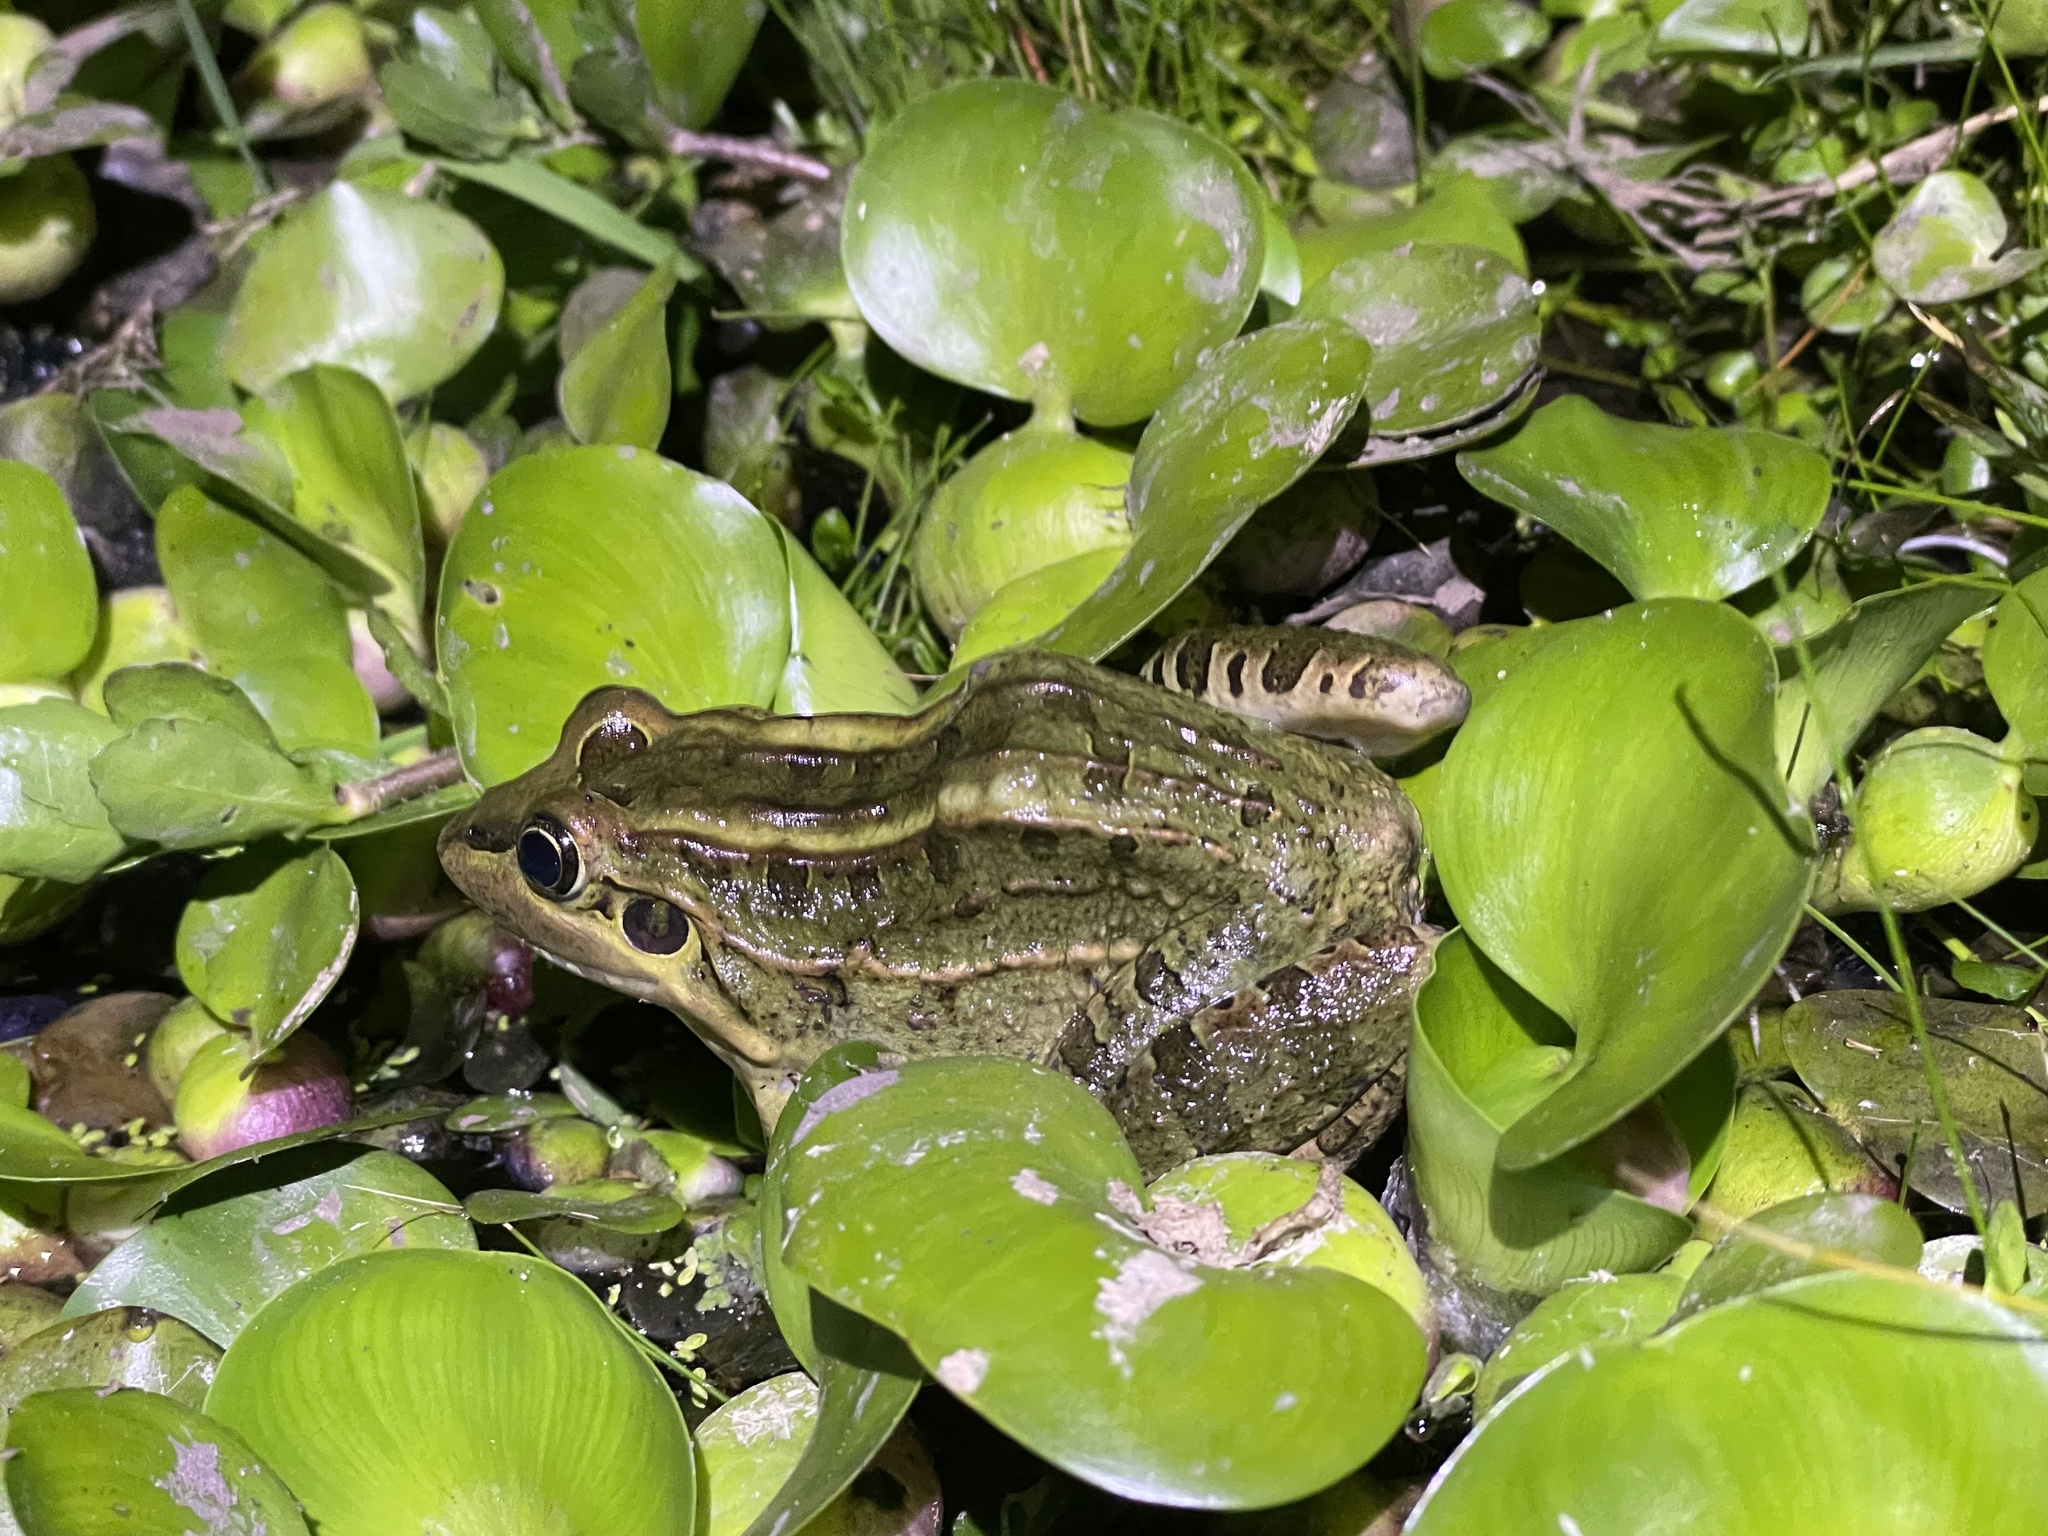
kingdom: Animalia
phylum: Chordata
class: Amphibia
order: Anura
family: Leptodactylidae
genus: Leptodactylus
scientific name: Leptodactylus luctator
